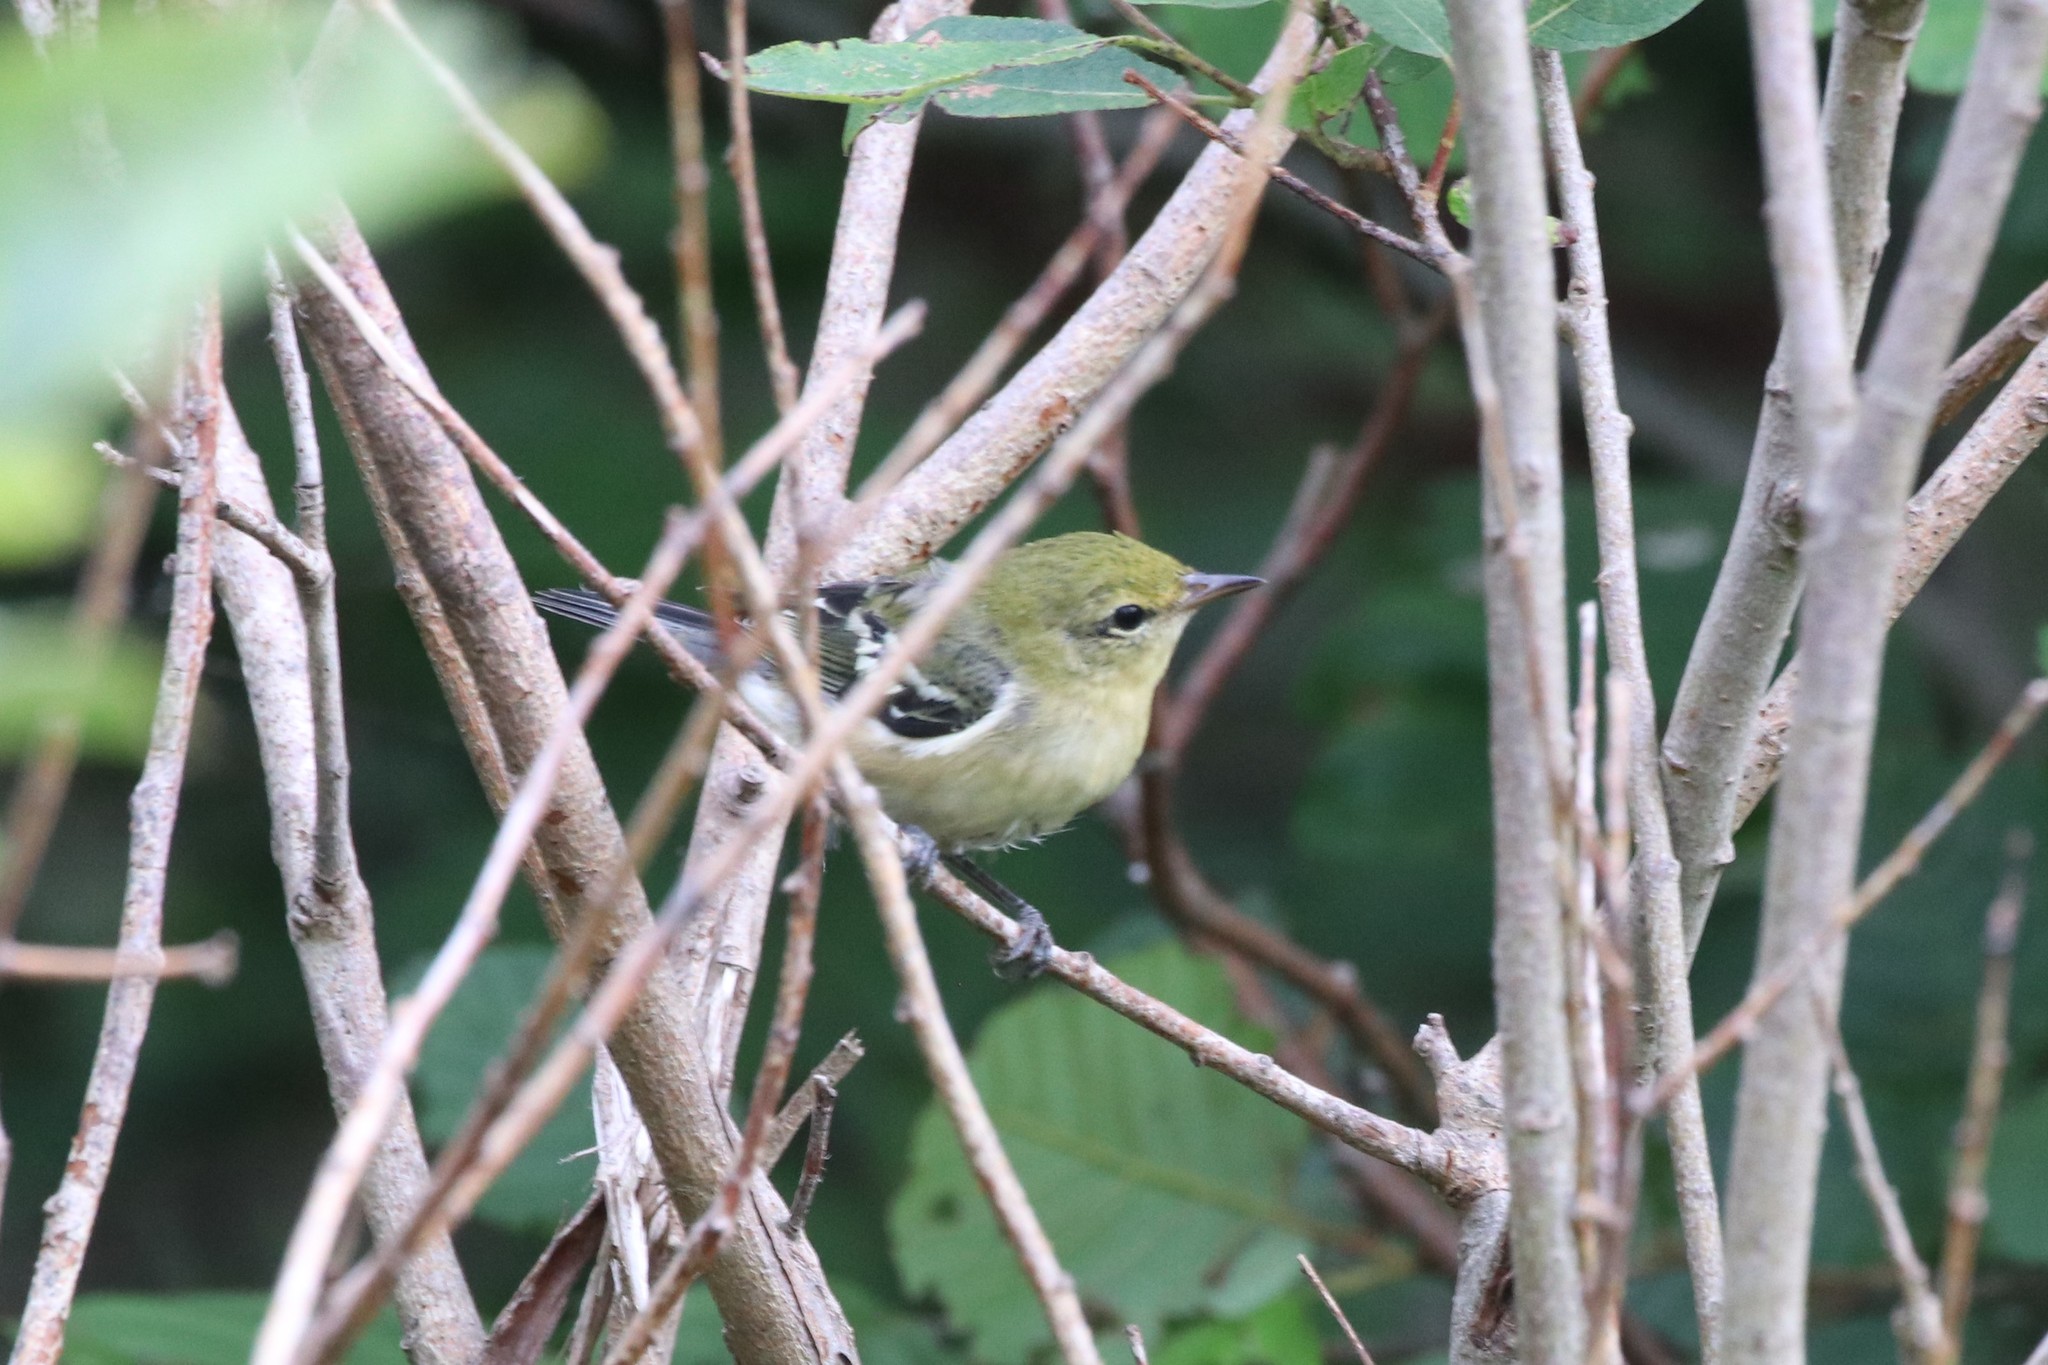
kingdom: Animalia
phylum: Chordata
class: Aves
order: Passeriformes
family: Parulidae
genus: Setophaga
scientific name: Setophaga castanea
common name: Bay-breasted warbler
